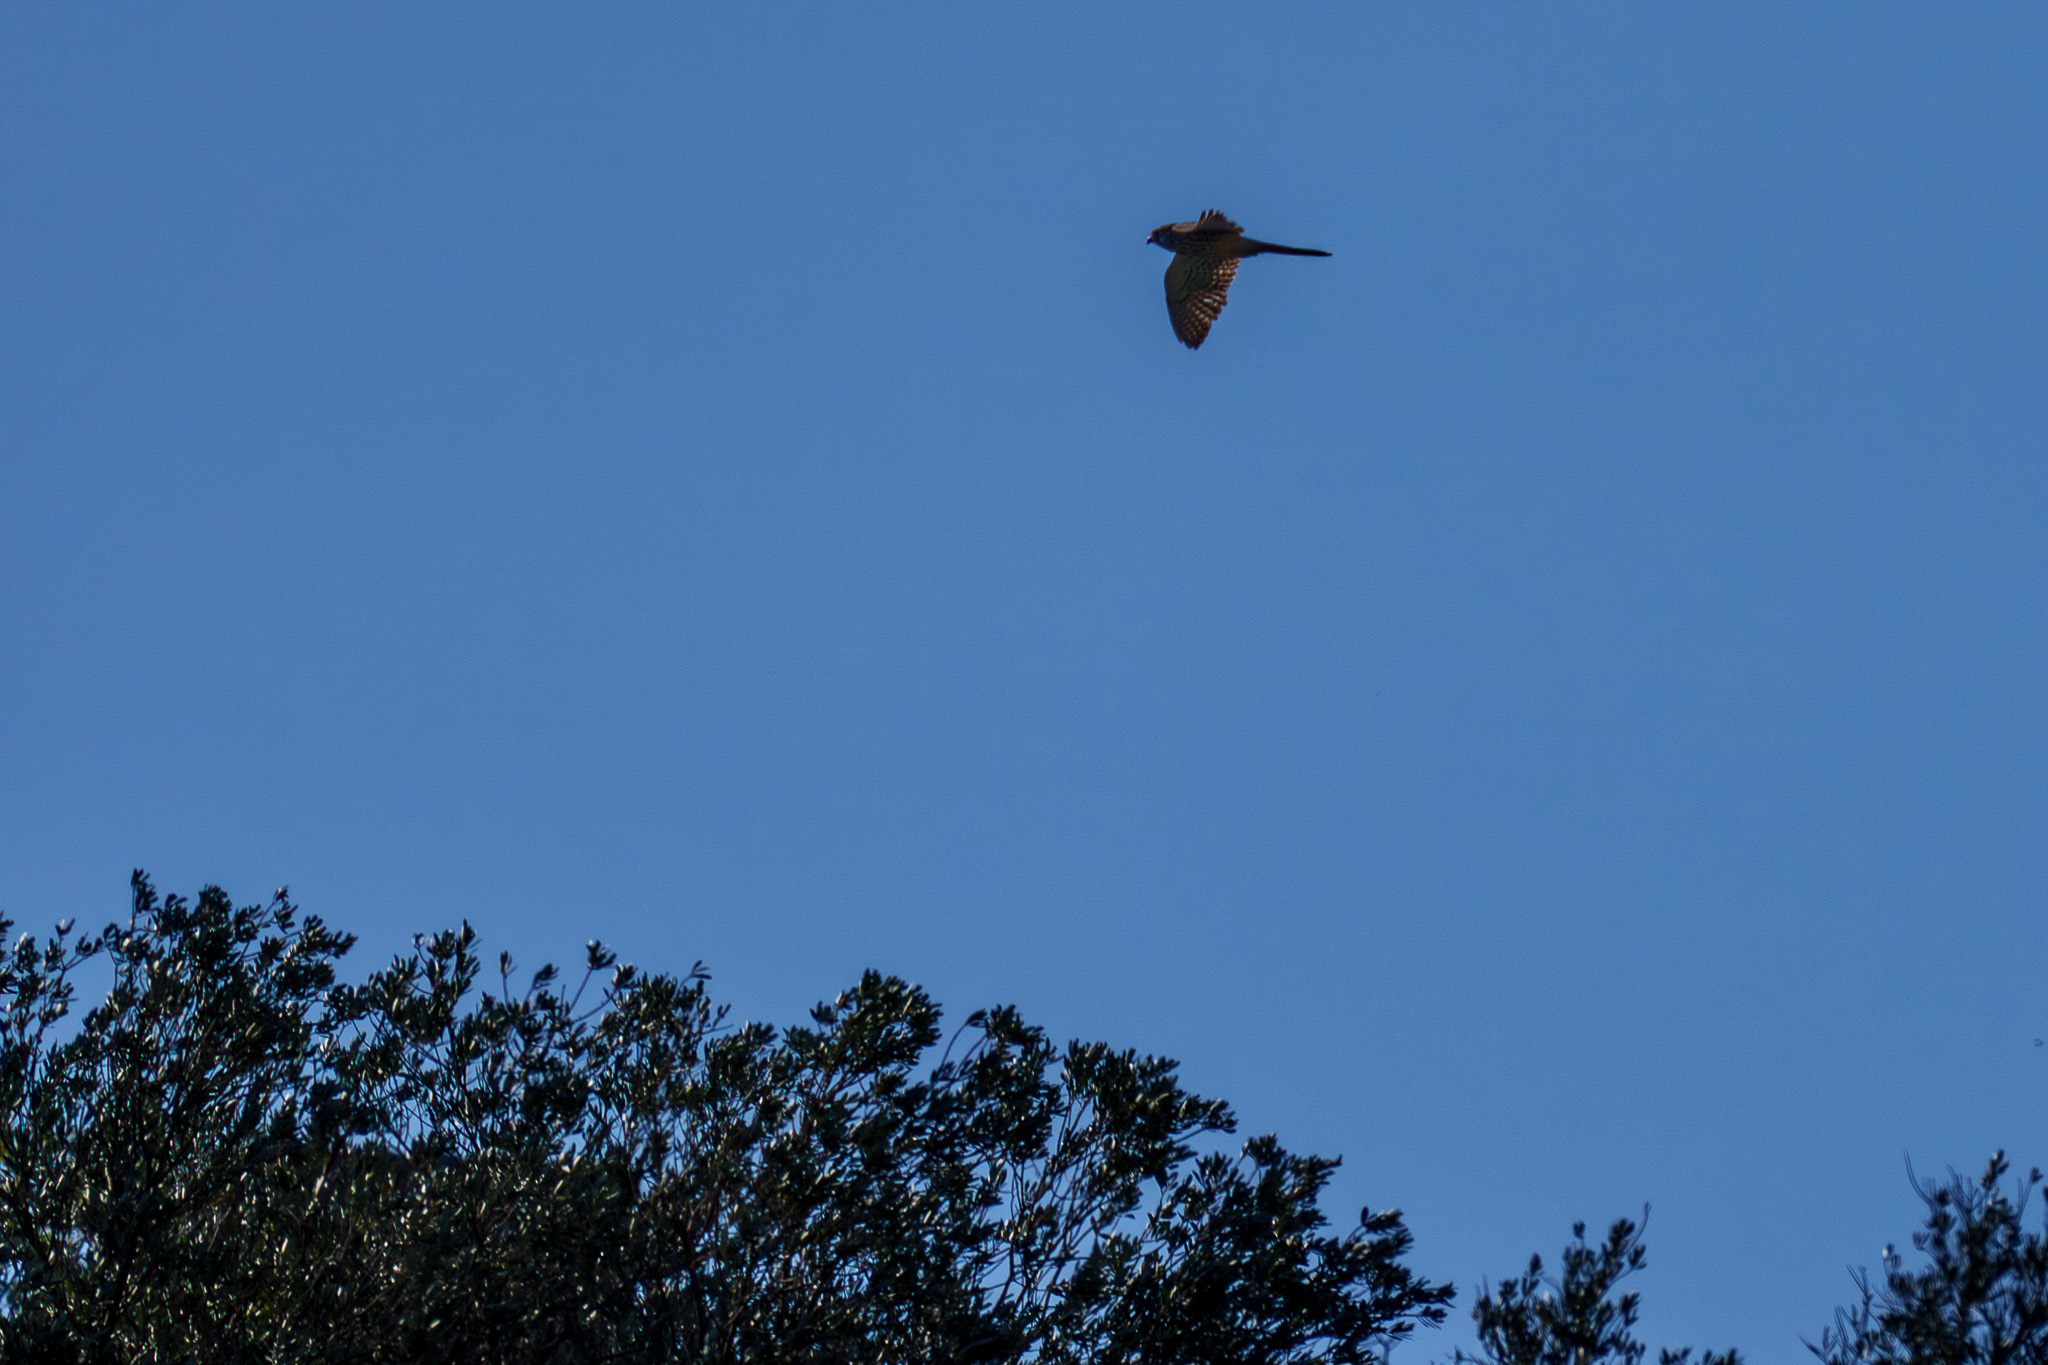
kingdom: Animalia
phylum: Chordata
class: Aves
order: Falconiformes
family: Falconidae
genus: Falco
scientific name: Falco tinnunculus
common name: Common kestrel
